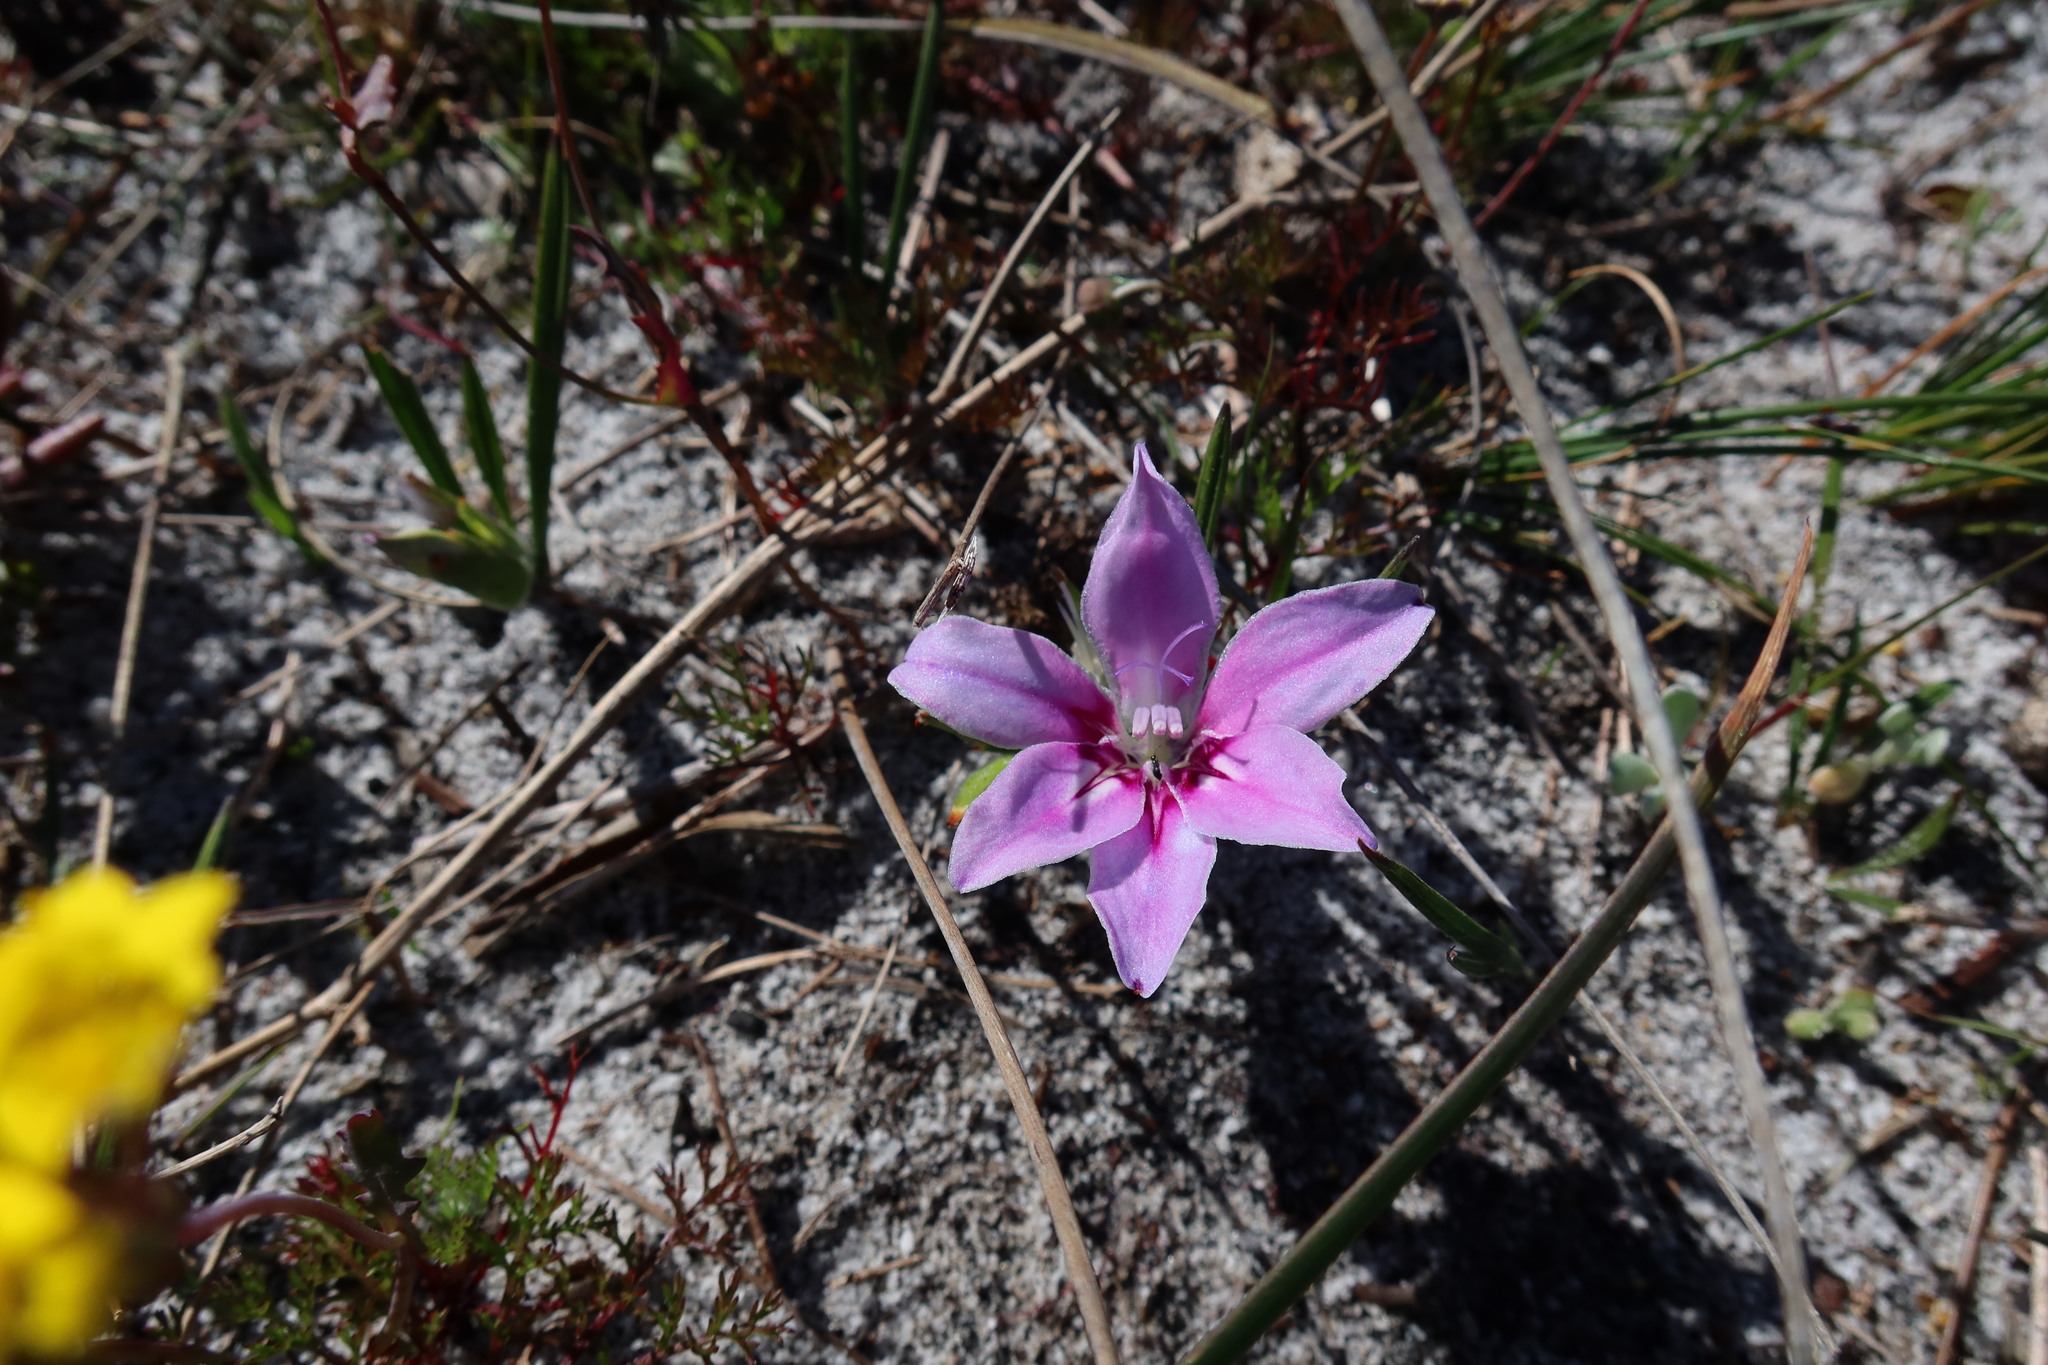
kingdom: Plantae
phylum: Tracheophyta
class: Liliopsida
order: Asparagales
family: Iridaceae
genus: Babiana
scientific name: Babiana ambigua
